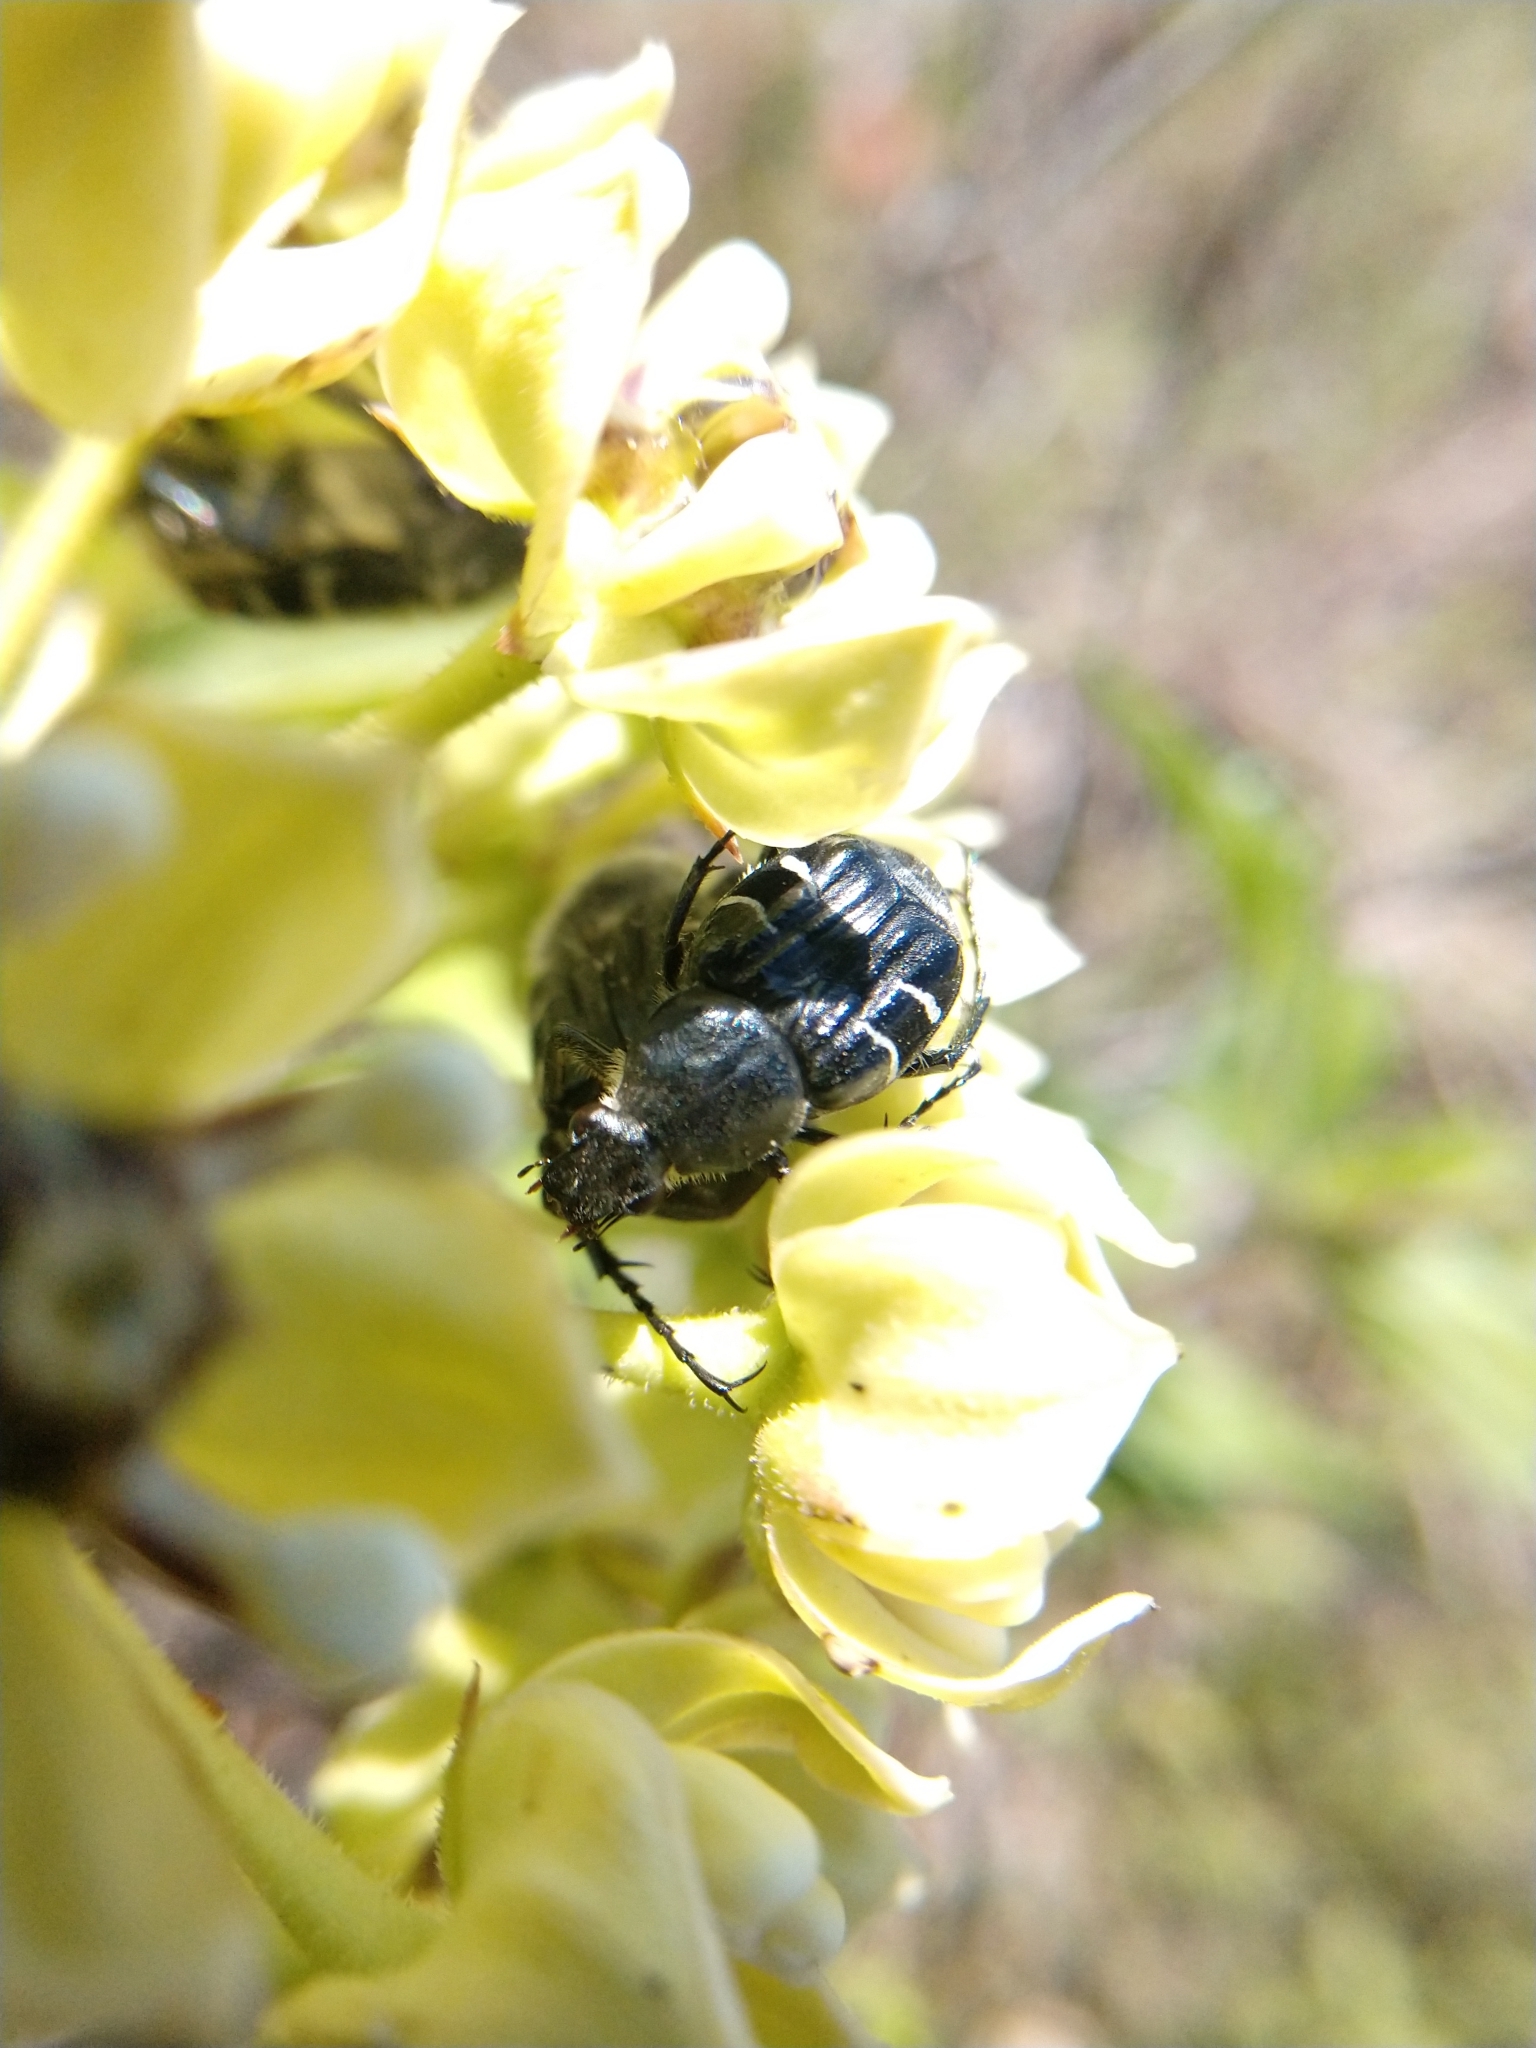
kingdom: Animalia
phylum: Arthropoda
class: Insecta
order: Coleoptera
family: Scarabaeidae
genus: Trichiotinus
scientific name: Trichiotinus texanus
